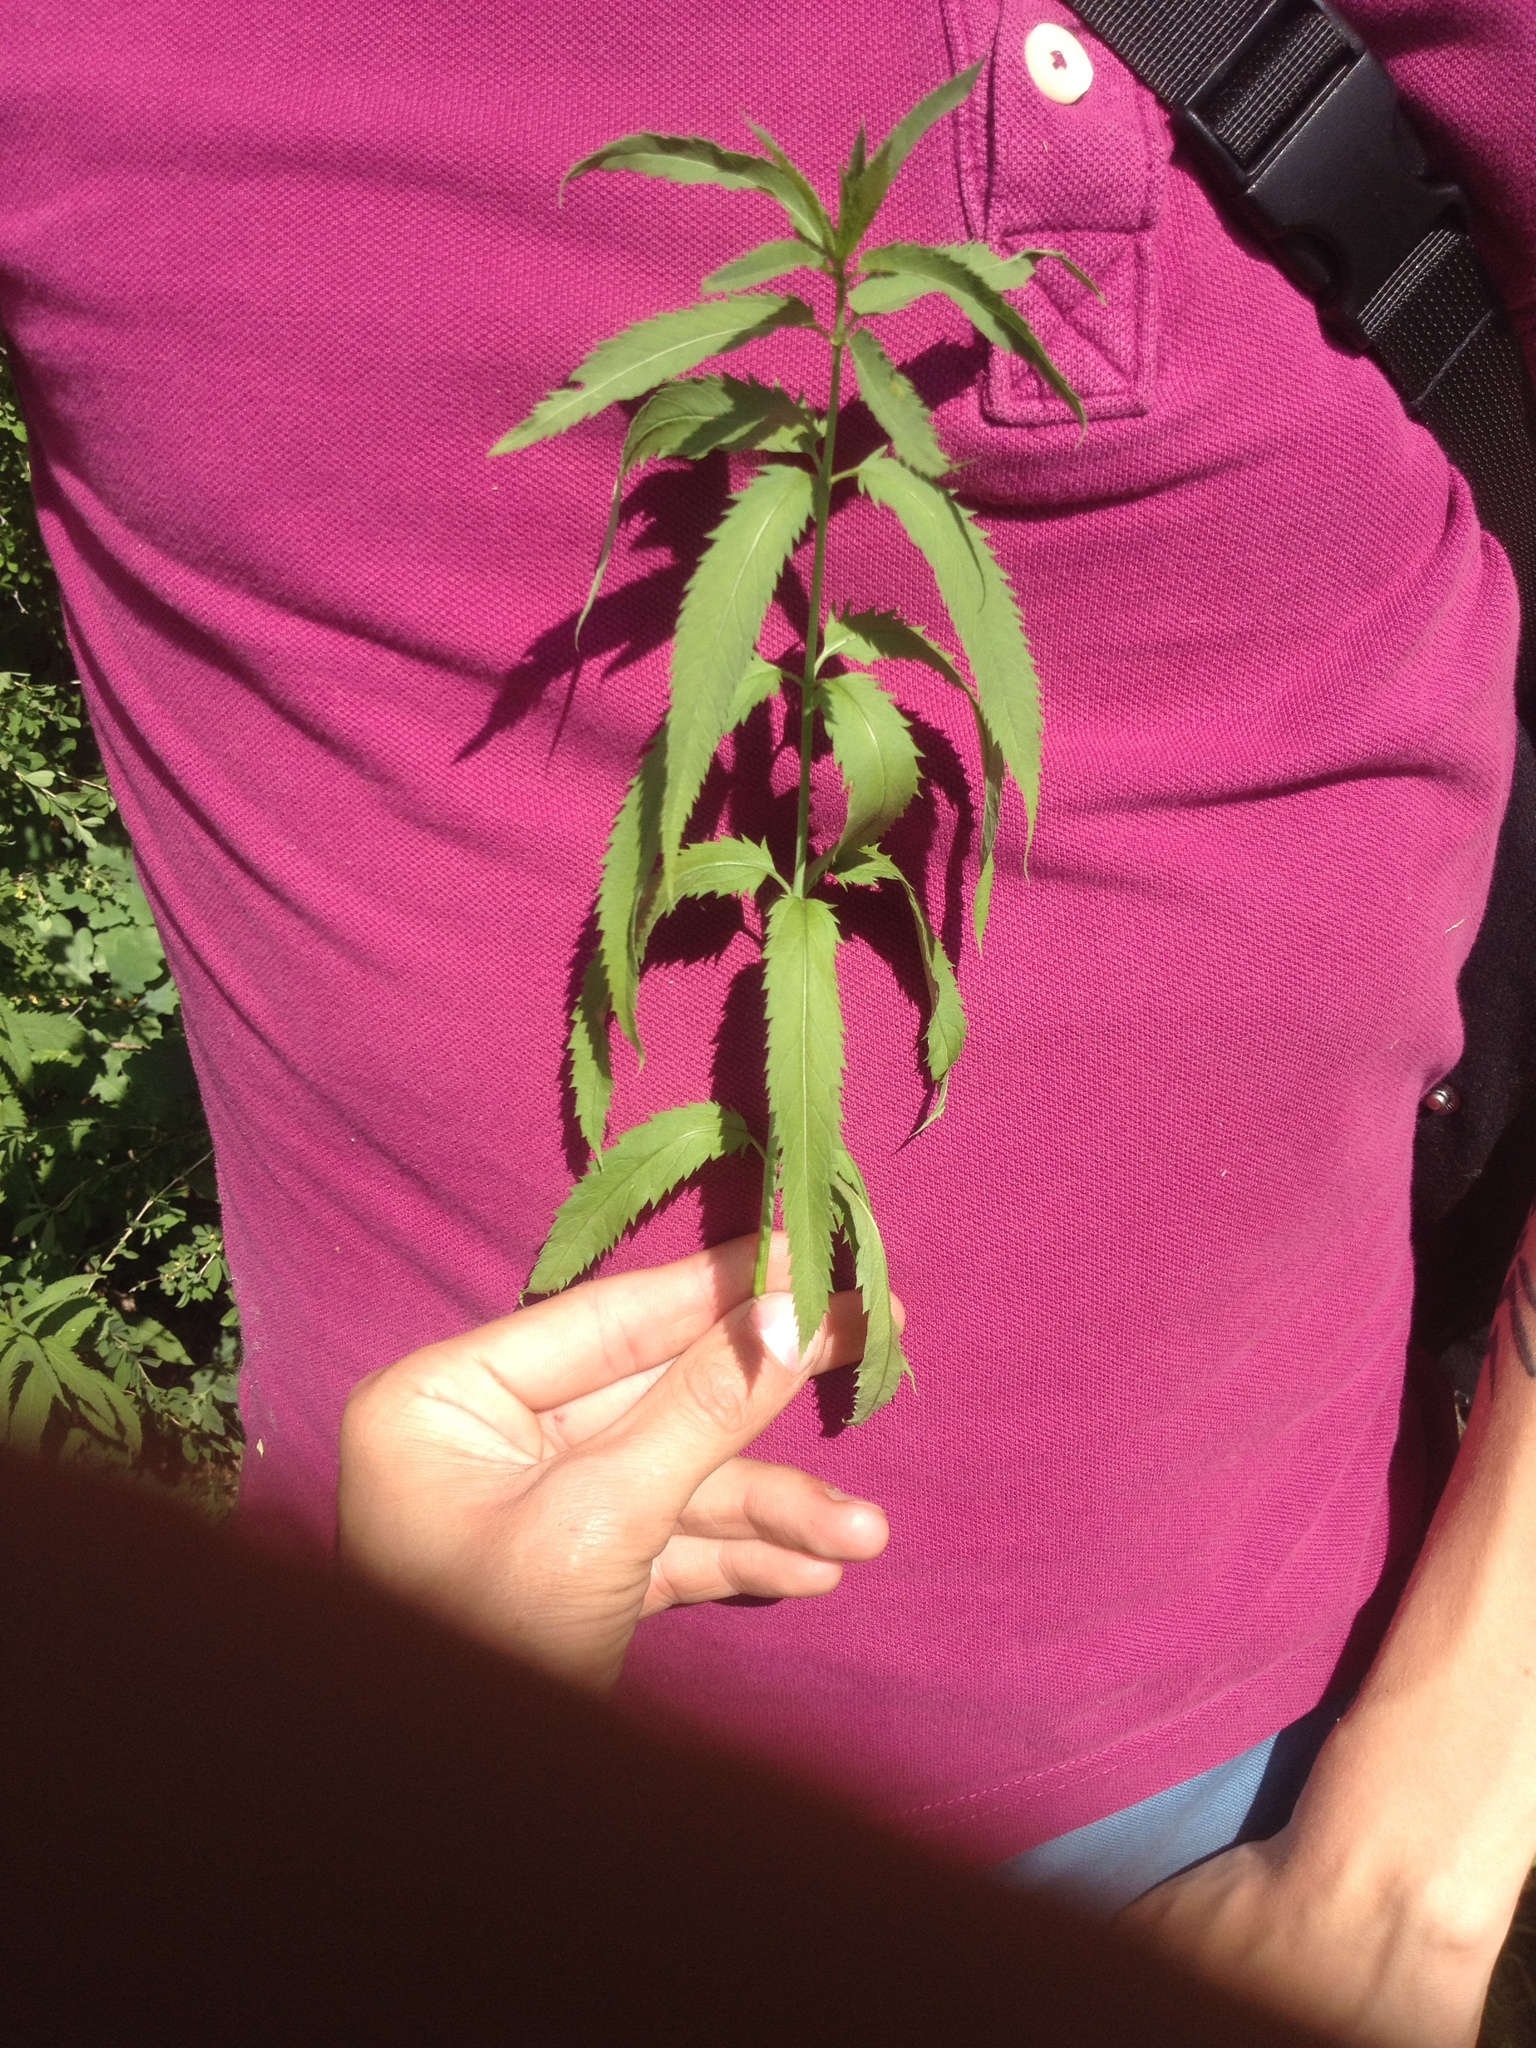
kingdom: Plantae
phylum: Tracheophyta
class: Magnoliopsida
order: Lamiales
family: Plantaginaceae
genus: Veronica
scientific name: Veronica longifolia
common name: Garden speedwell
